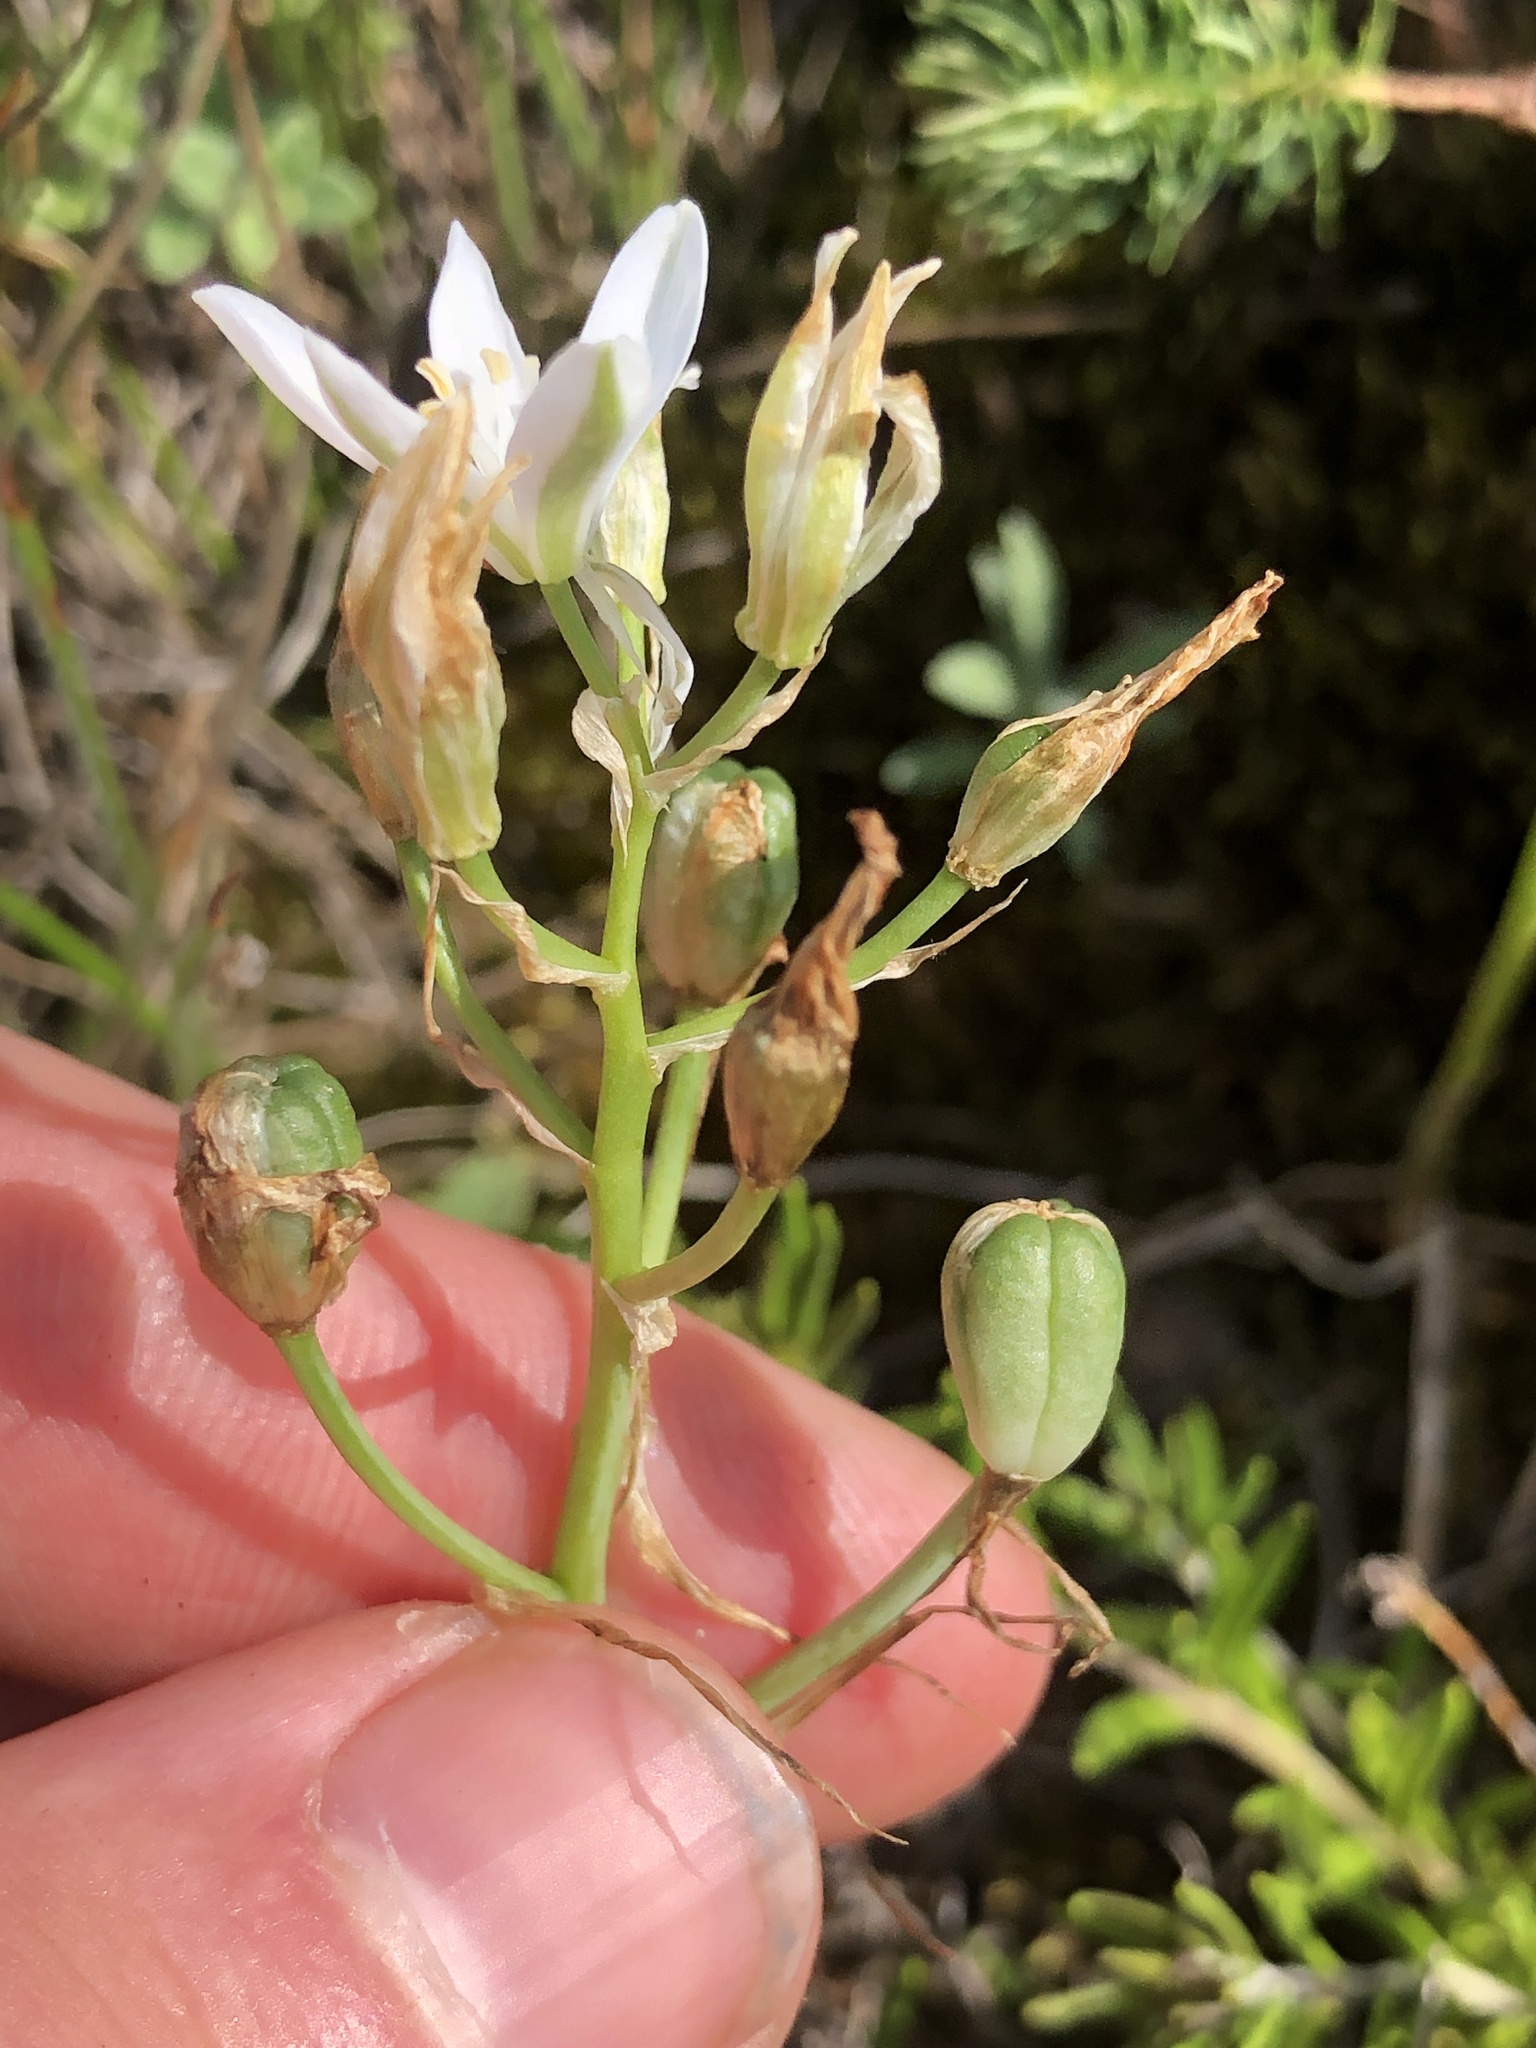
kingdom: Plantae
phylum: Tracheophyta
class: Liliopsida
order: Asparagales
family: Asparagaceae
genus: Ornithogalum
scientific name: Ornithogalum comosum
